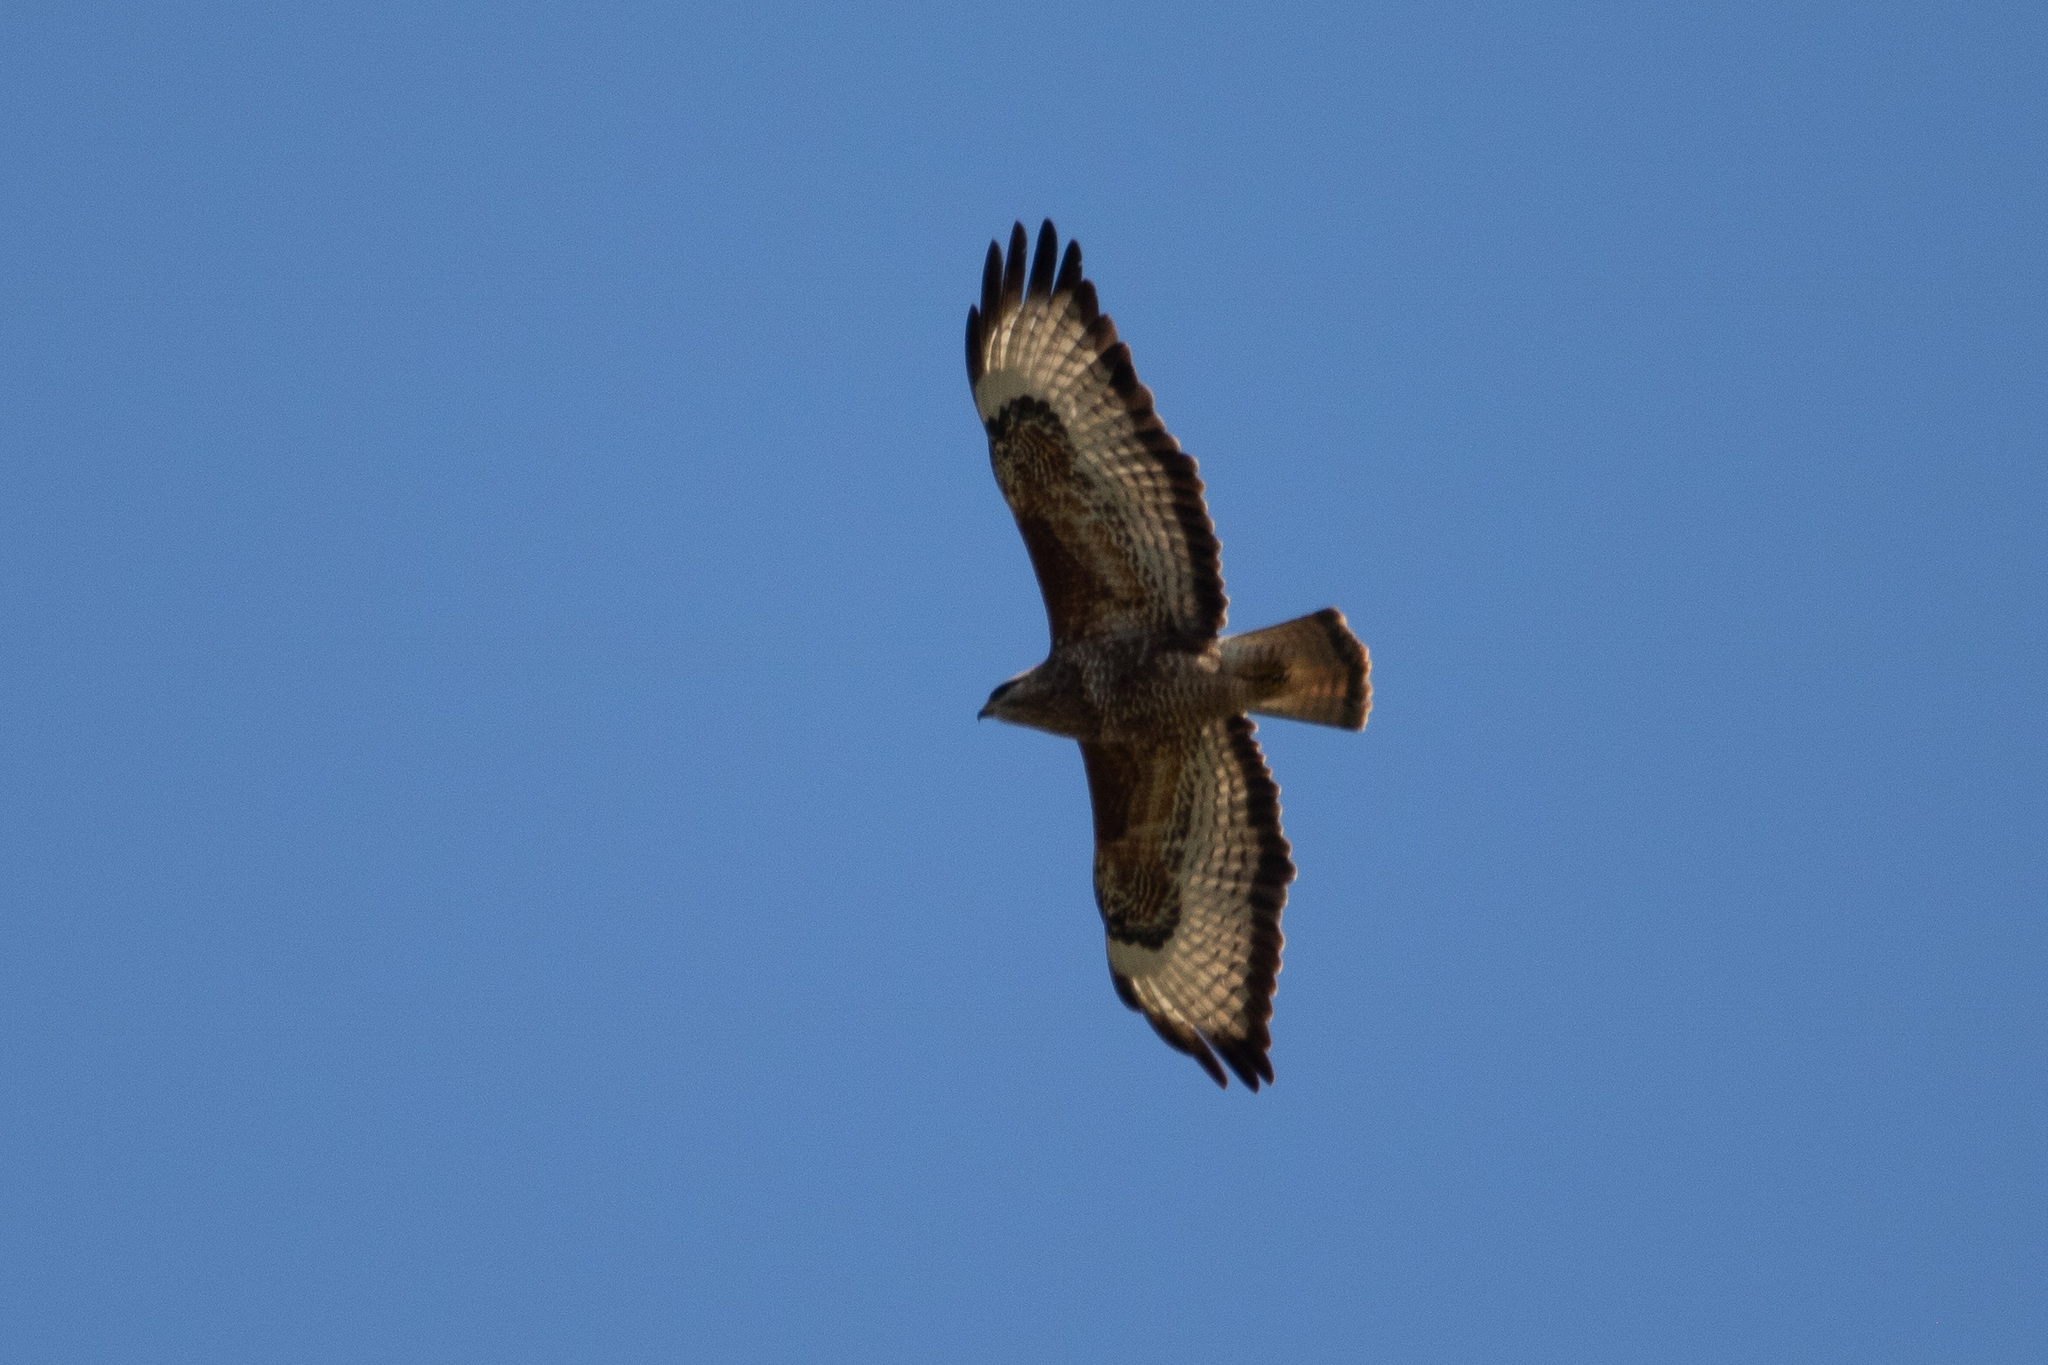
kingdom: Animalia
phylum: Chordata
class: Aves
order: Accipitriformes
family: Accipitridae
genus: Buteo
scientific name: Buteo buteo
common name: Common buzzard
